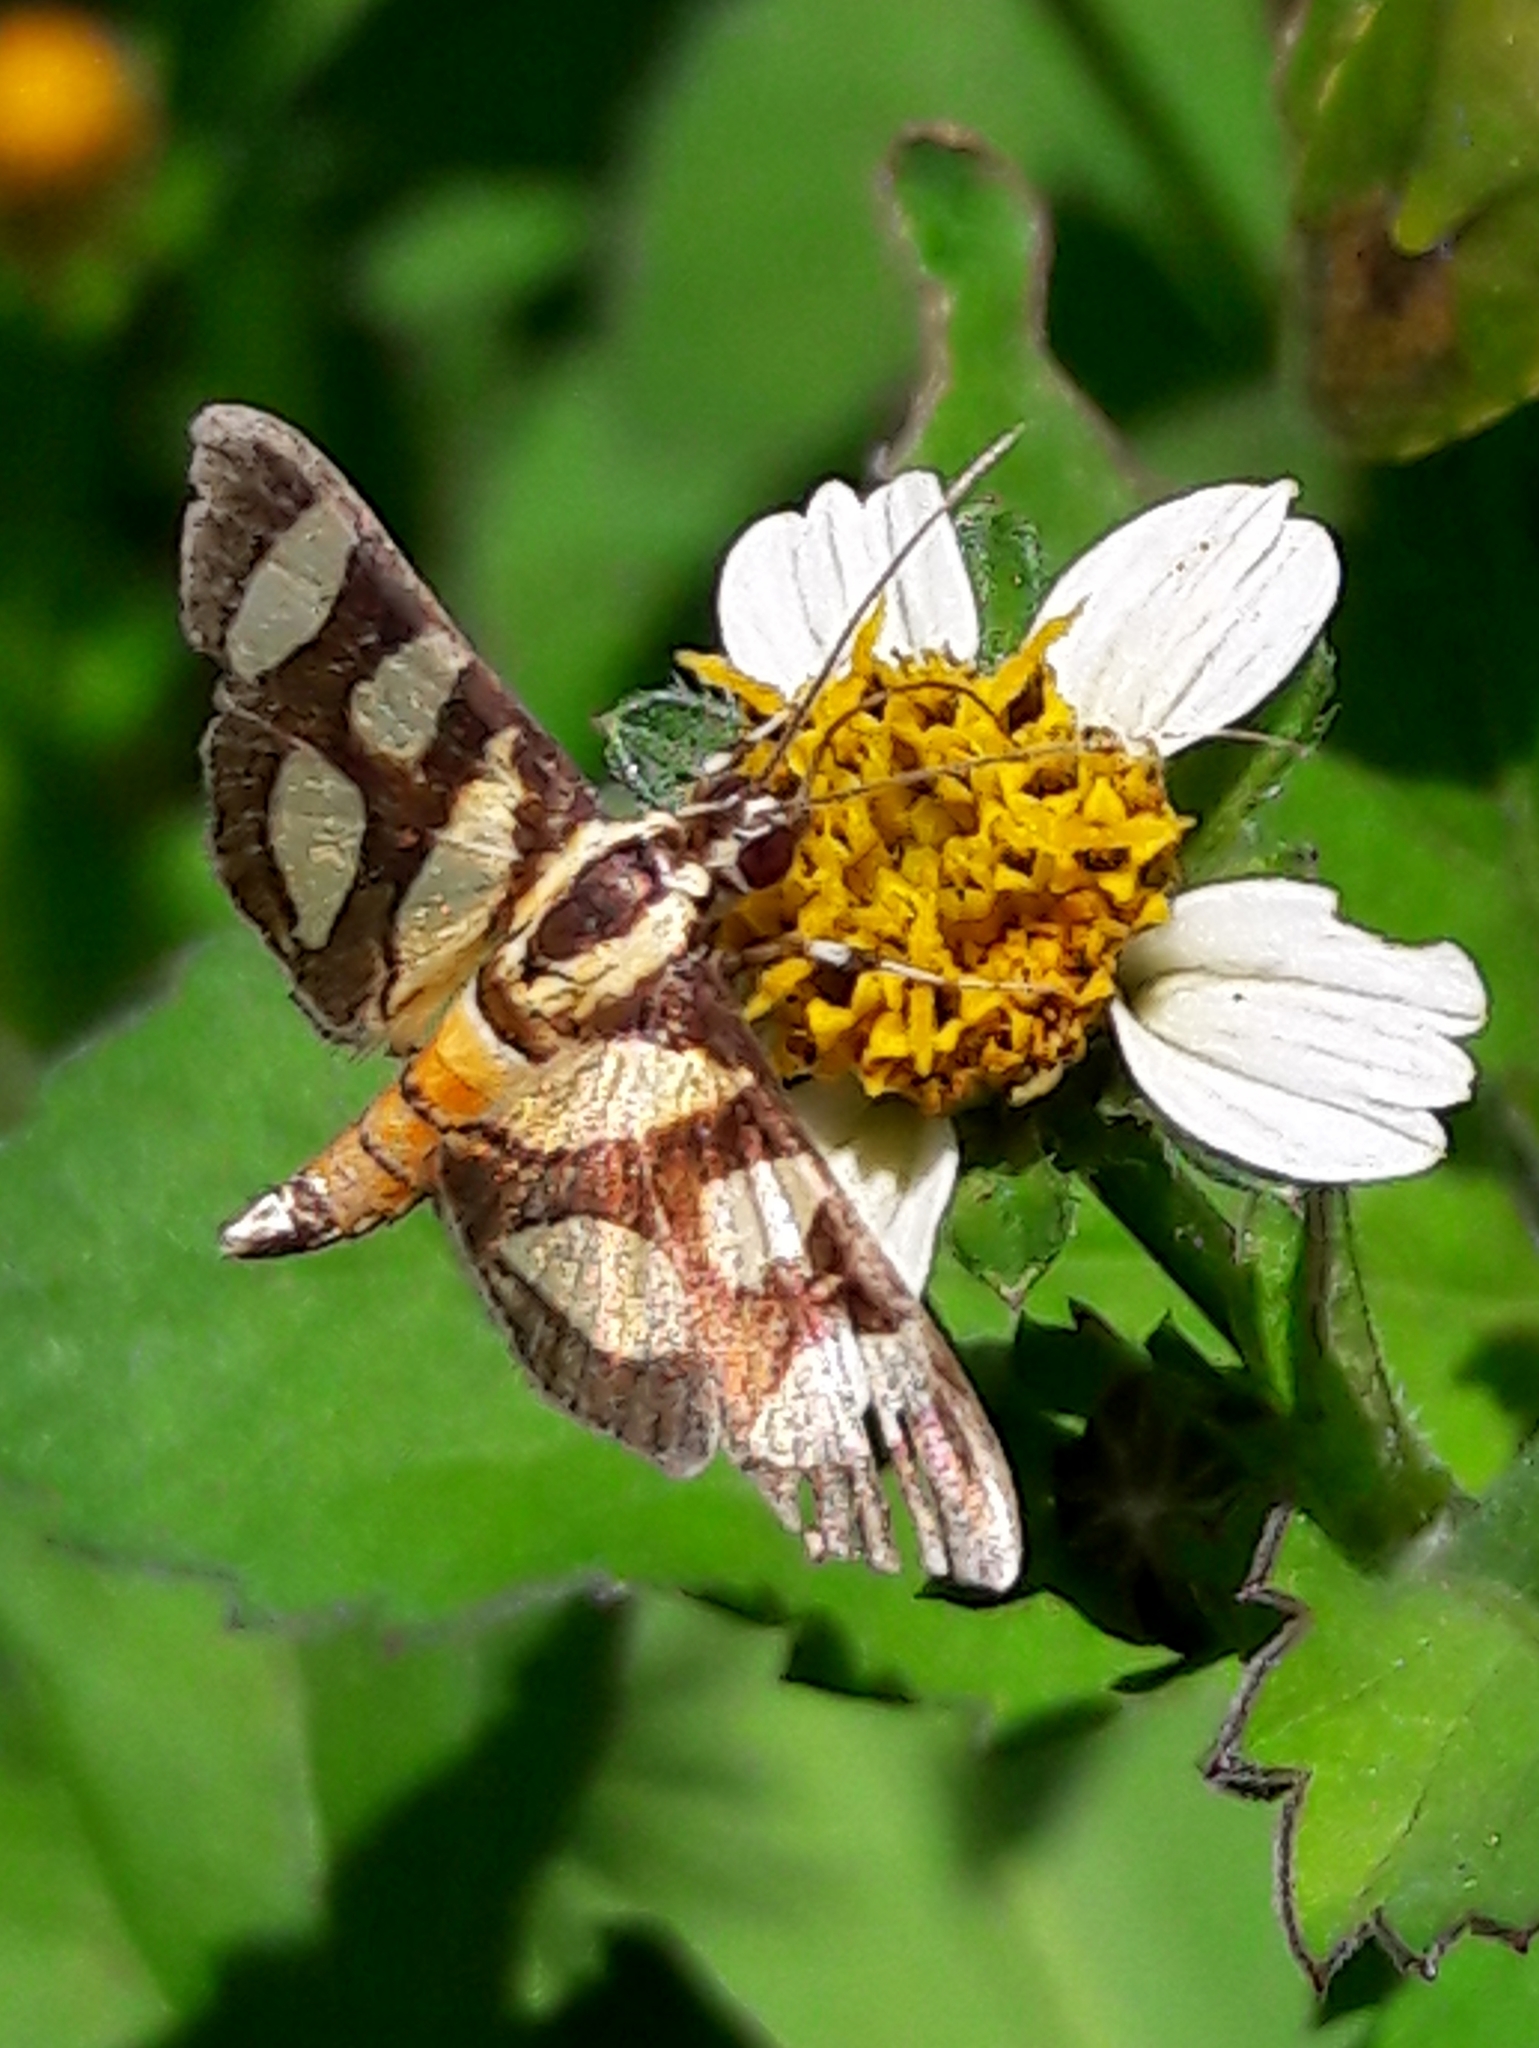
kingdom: Animalia
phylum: Arthropoda
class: Insecta
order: Lepidoptera
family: Crambidae
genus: Syngamia
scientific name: Syngamia florella
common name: Orange-spotted flower moth
